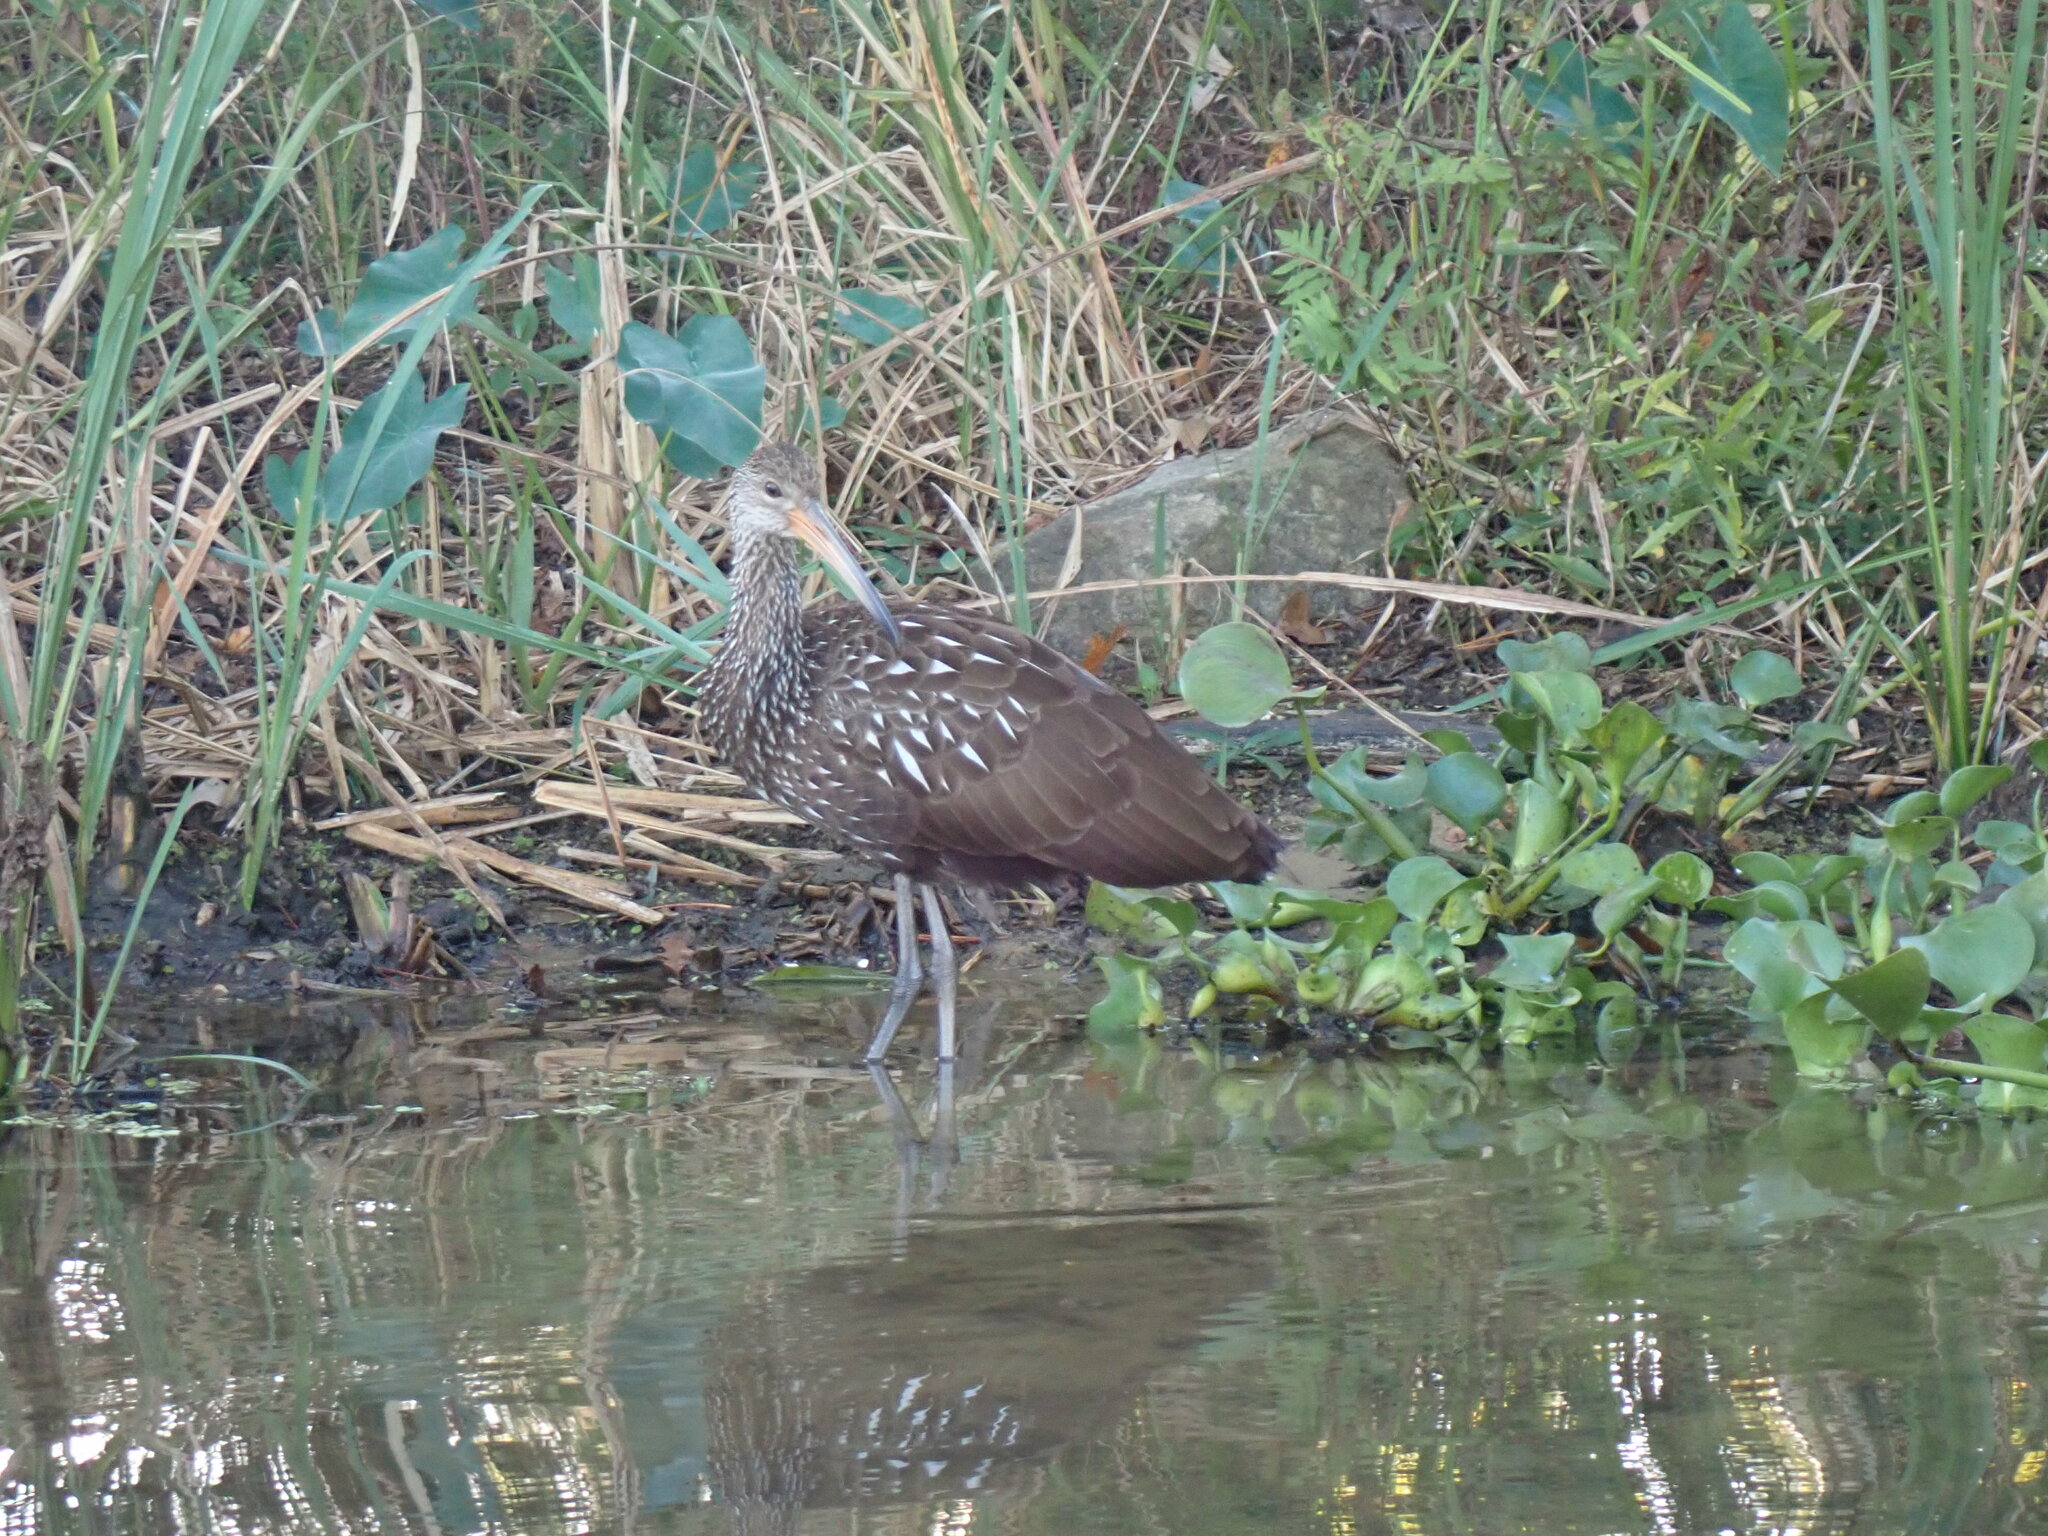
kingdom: Animalia
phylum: Chordata
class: Aves
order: Gruiformes
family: Aramidae
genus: Aramus
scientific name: Aramus guarauna
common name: Limpkin
